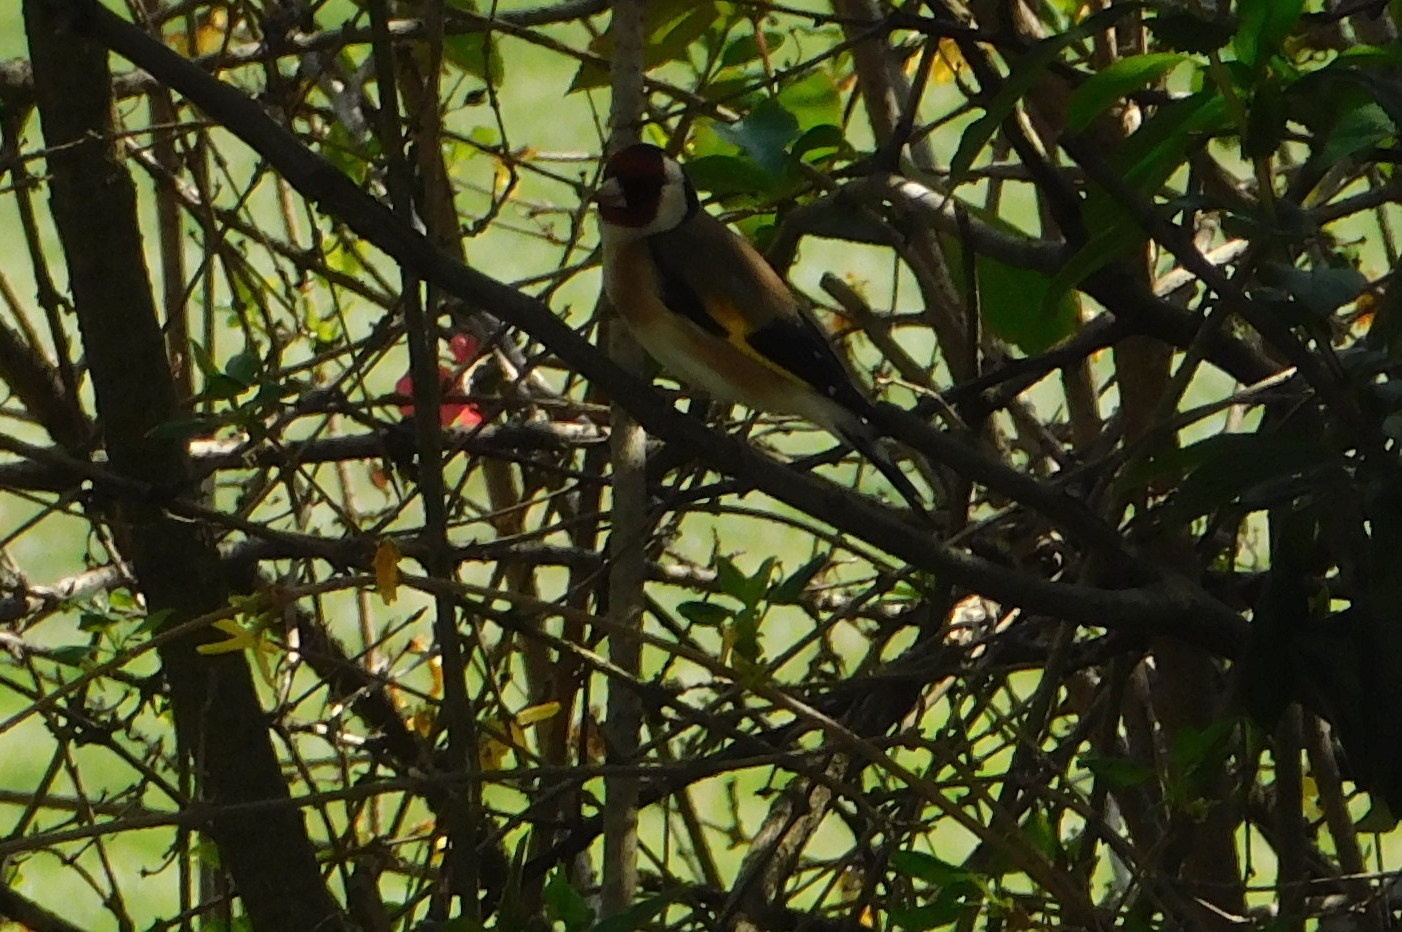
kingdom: Animalia
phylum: Chordata
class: Aves
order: Passeriformes
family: Fringillidae
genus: Carduelis
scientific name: Carduelis carduelis
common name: European goldfinch
